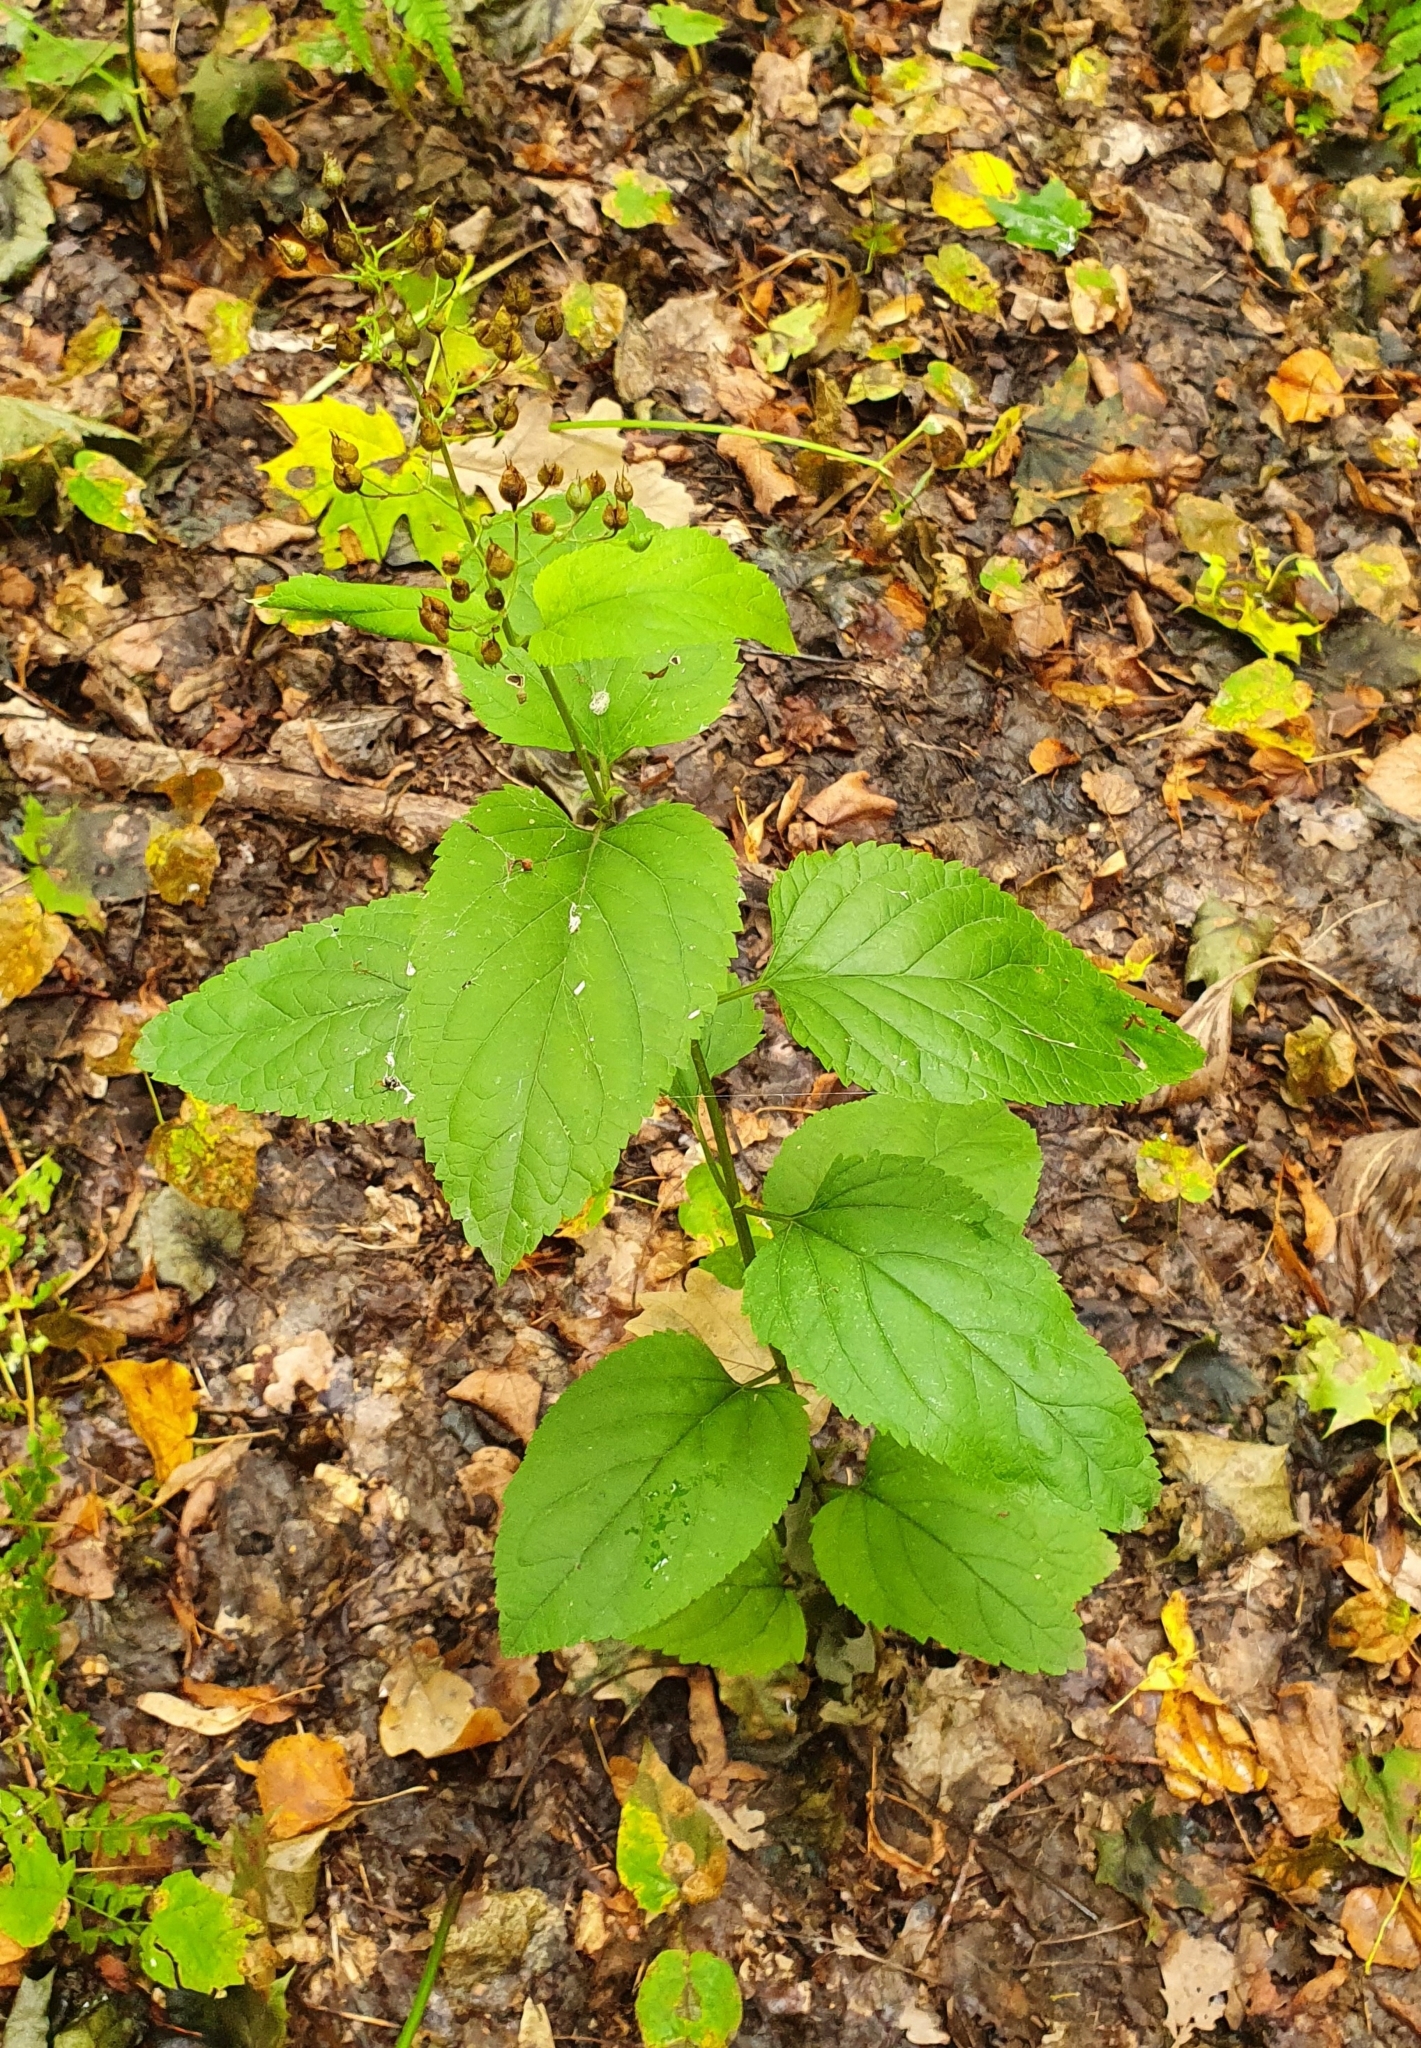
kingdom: Plantae
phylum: Tracheophyta
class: Magnoliopsida
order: Lamiales
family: Scrophulariaceae
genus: Scrophularia
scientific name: Scrophularia nodosa
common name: Common figwort
